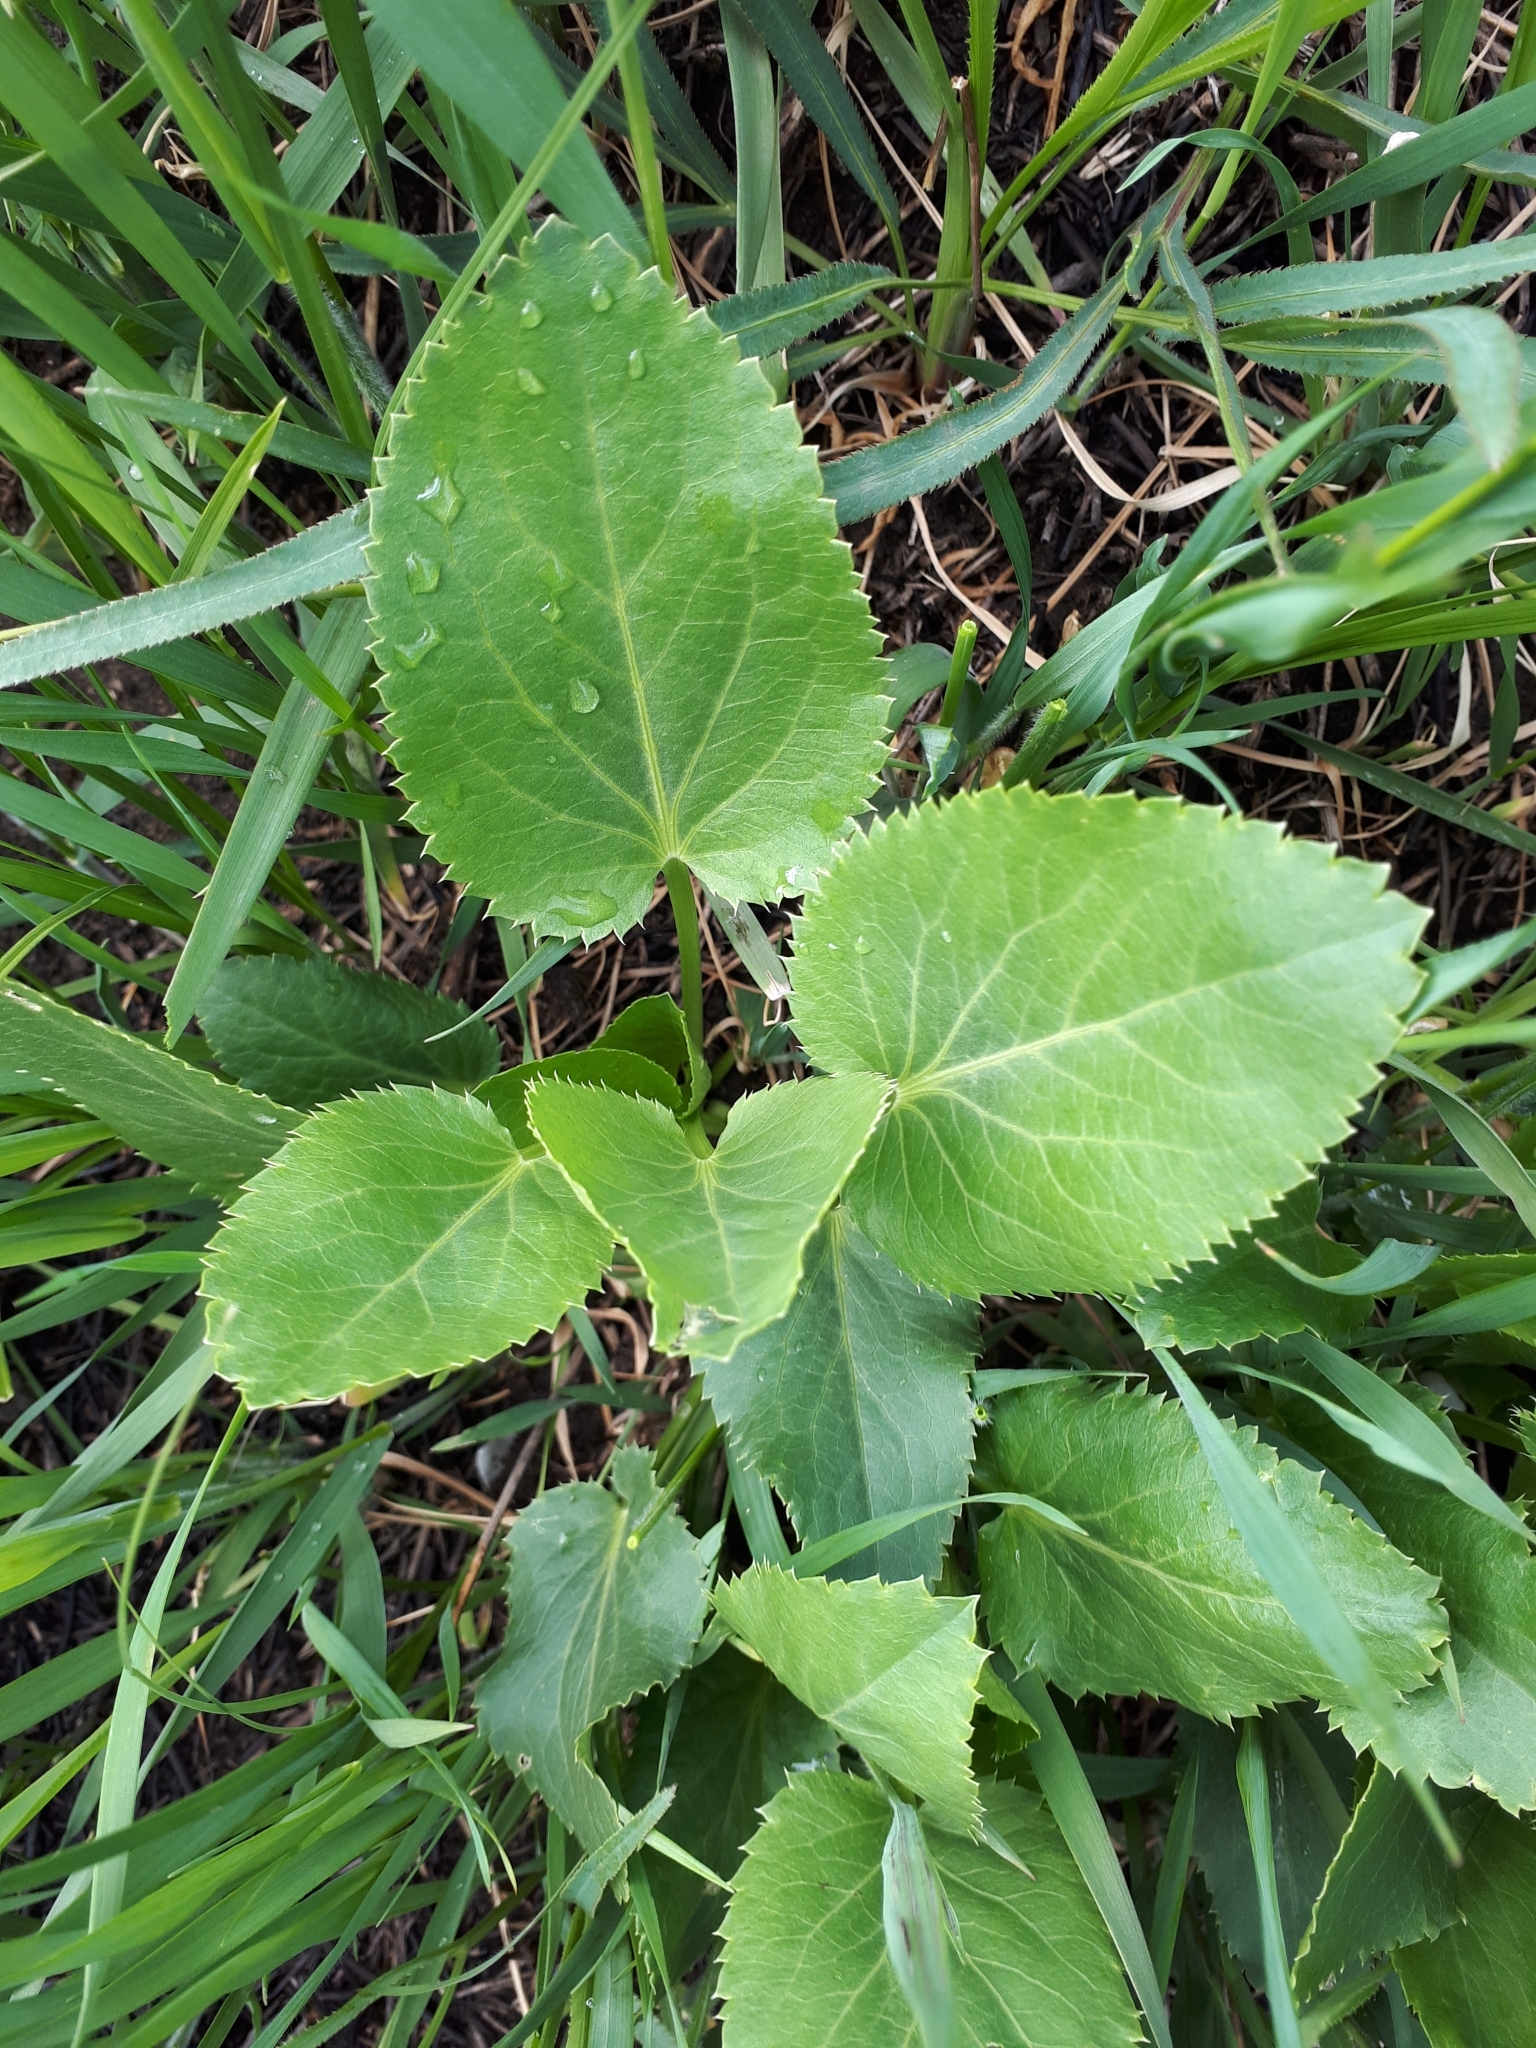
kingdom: Plantae
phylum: Tracheophyta
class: Magnoliopsida
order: Apiales
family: Apiaceae
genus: Eryngium
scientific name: Eryngium planum
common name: Blue eryngo
